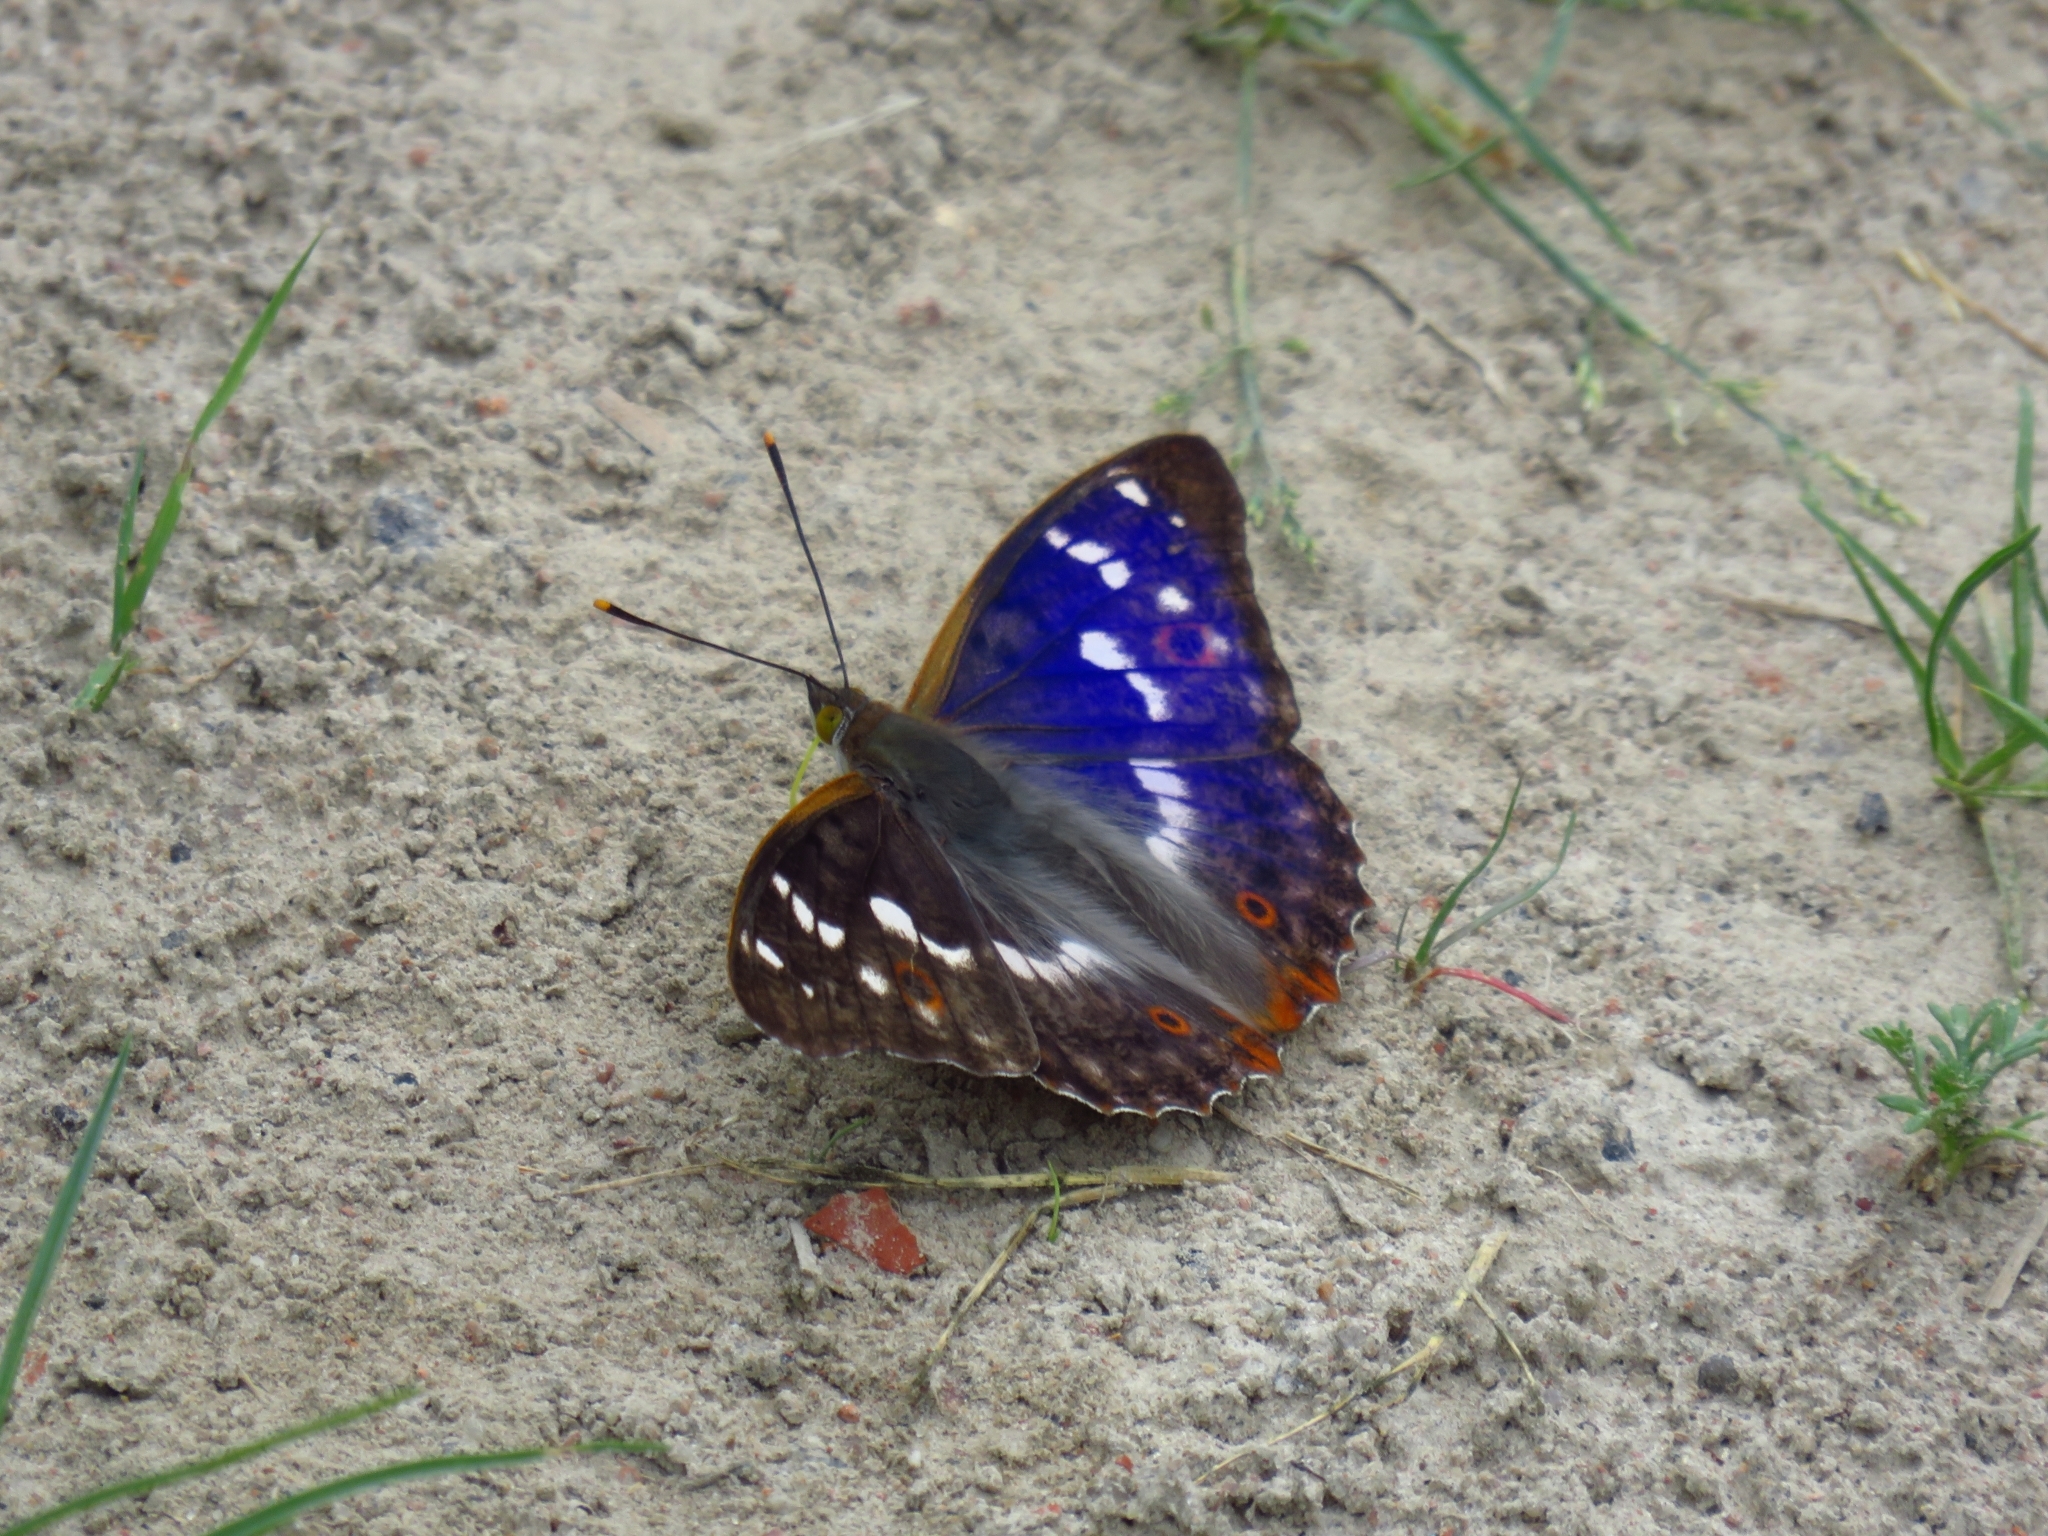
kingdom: Animalia
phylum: Arthropoda
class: Insecta
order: Lepidoptera
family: Nymphalidae
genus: Apatura
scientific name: Apatura ilia
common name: Lesser purple emperor
